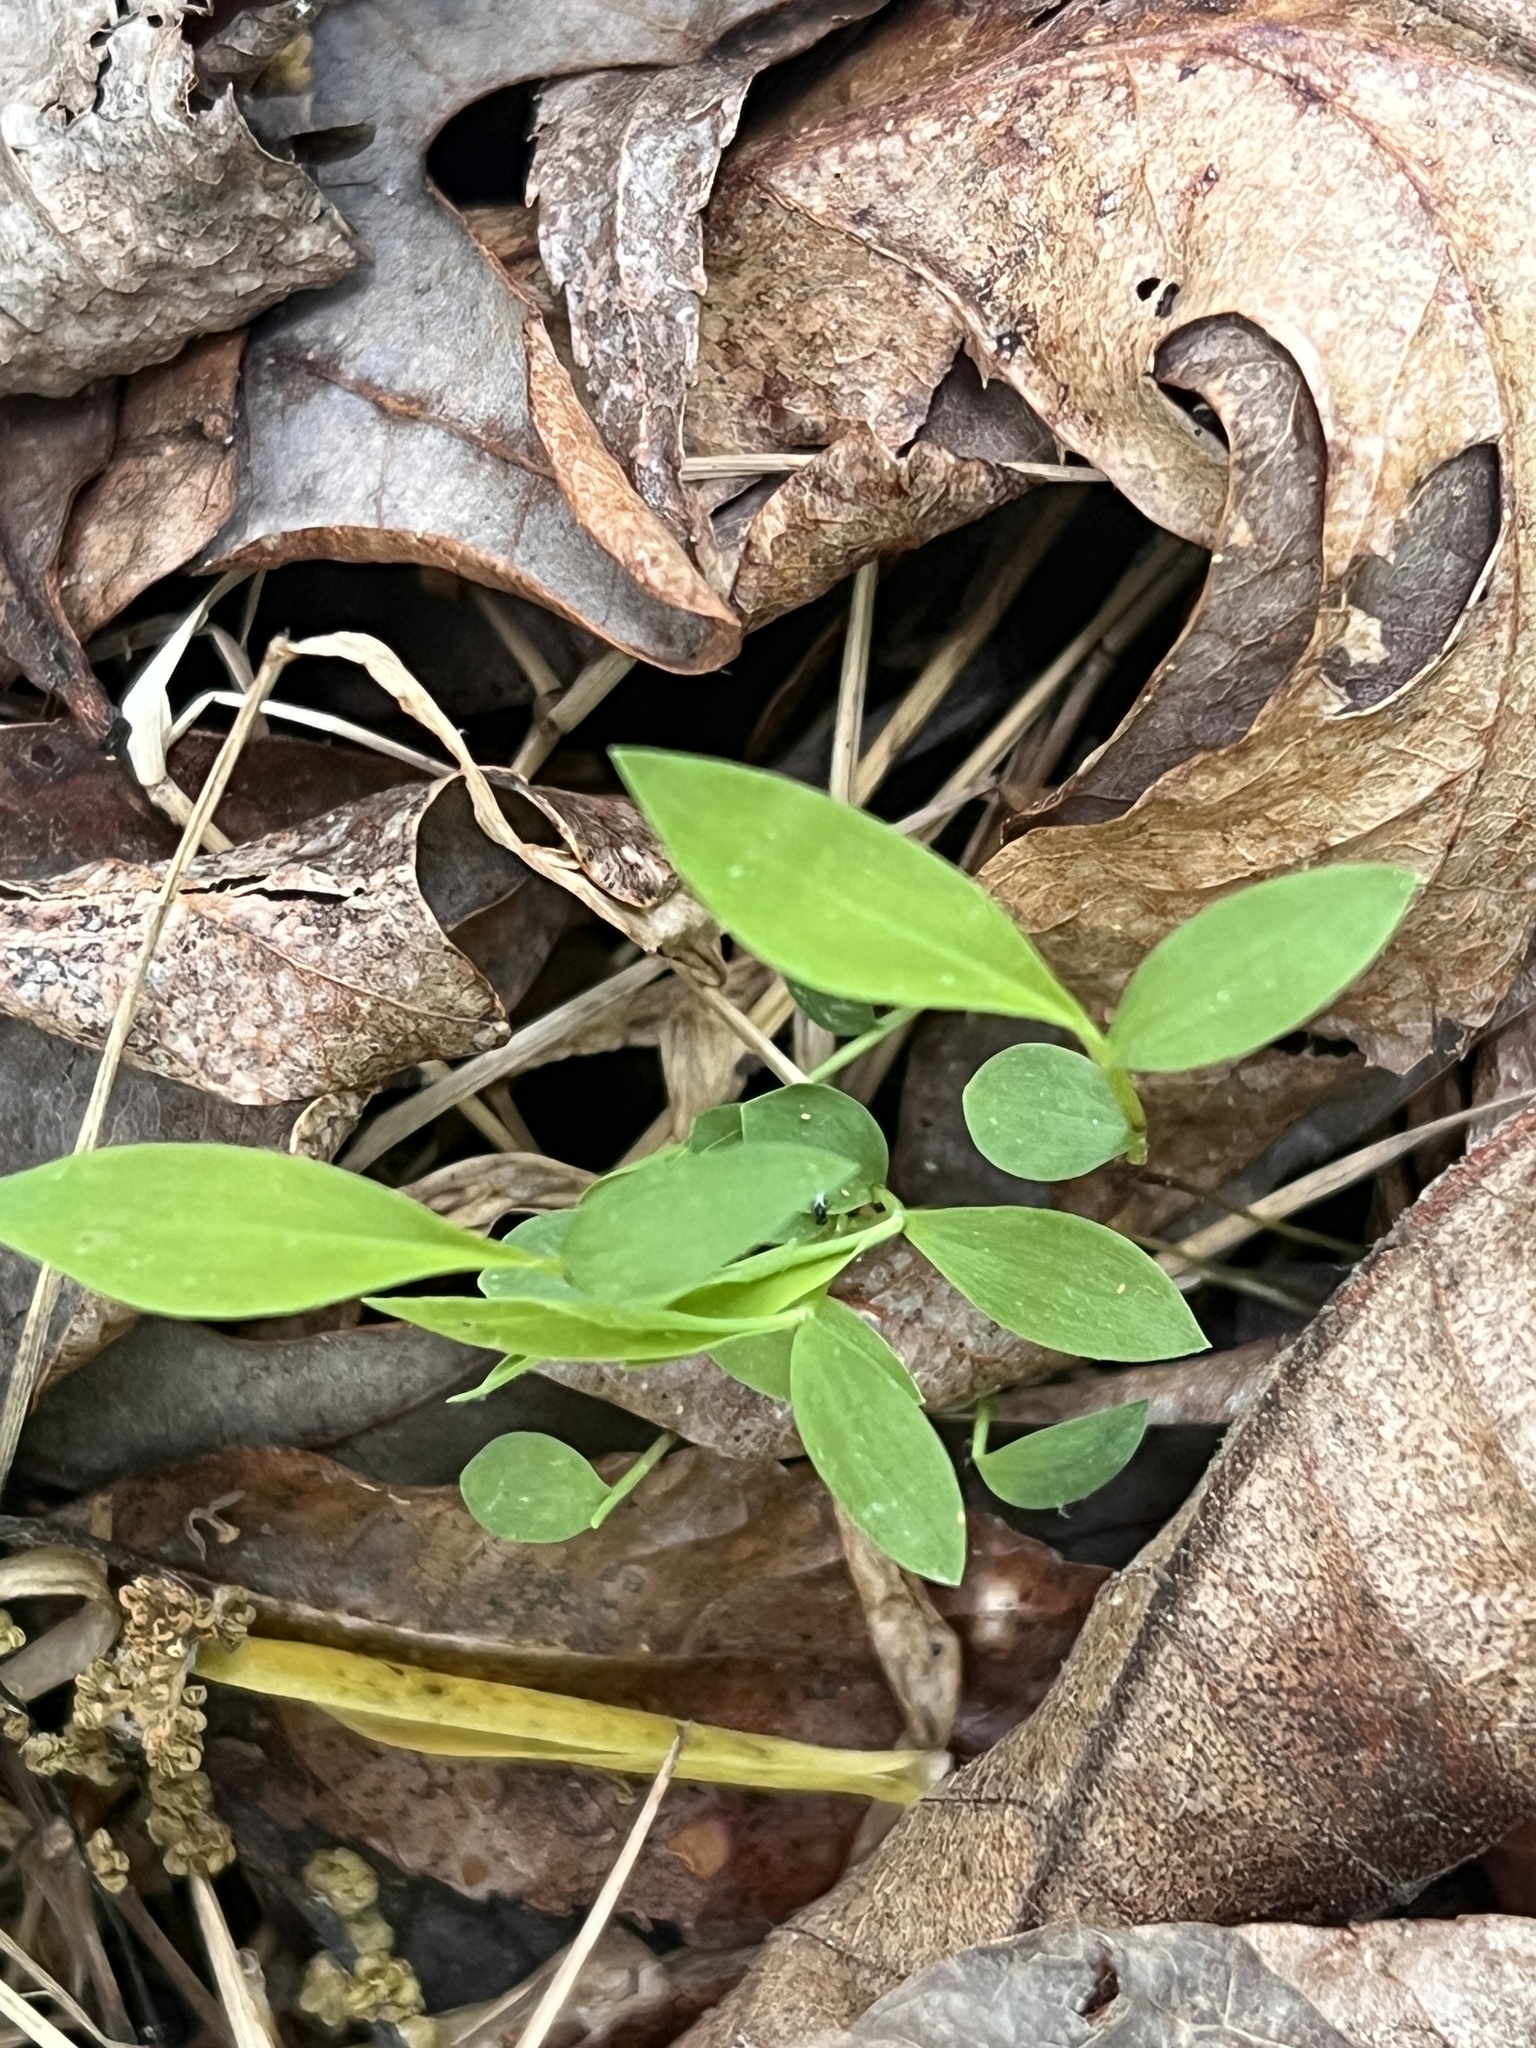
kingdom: Plantae
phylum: Tracheophyta
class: Liliopsida
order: Poales
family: Poaceae
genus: Microstegium
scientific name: Microstegium vimineum
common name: Japanese stiltgrass
